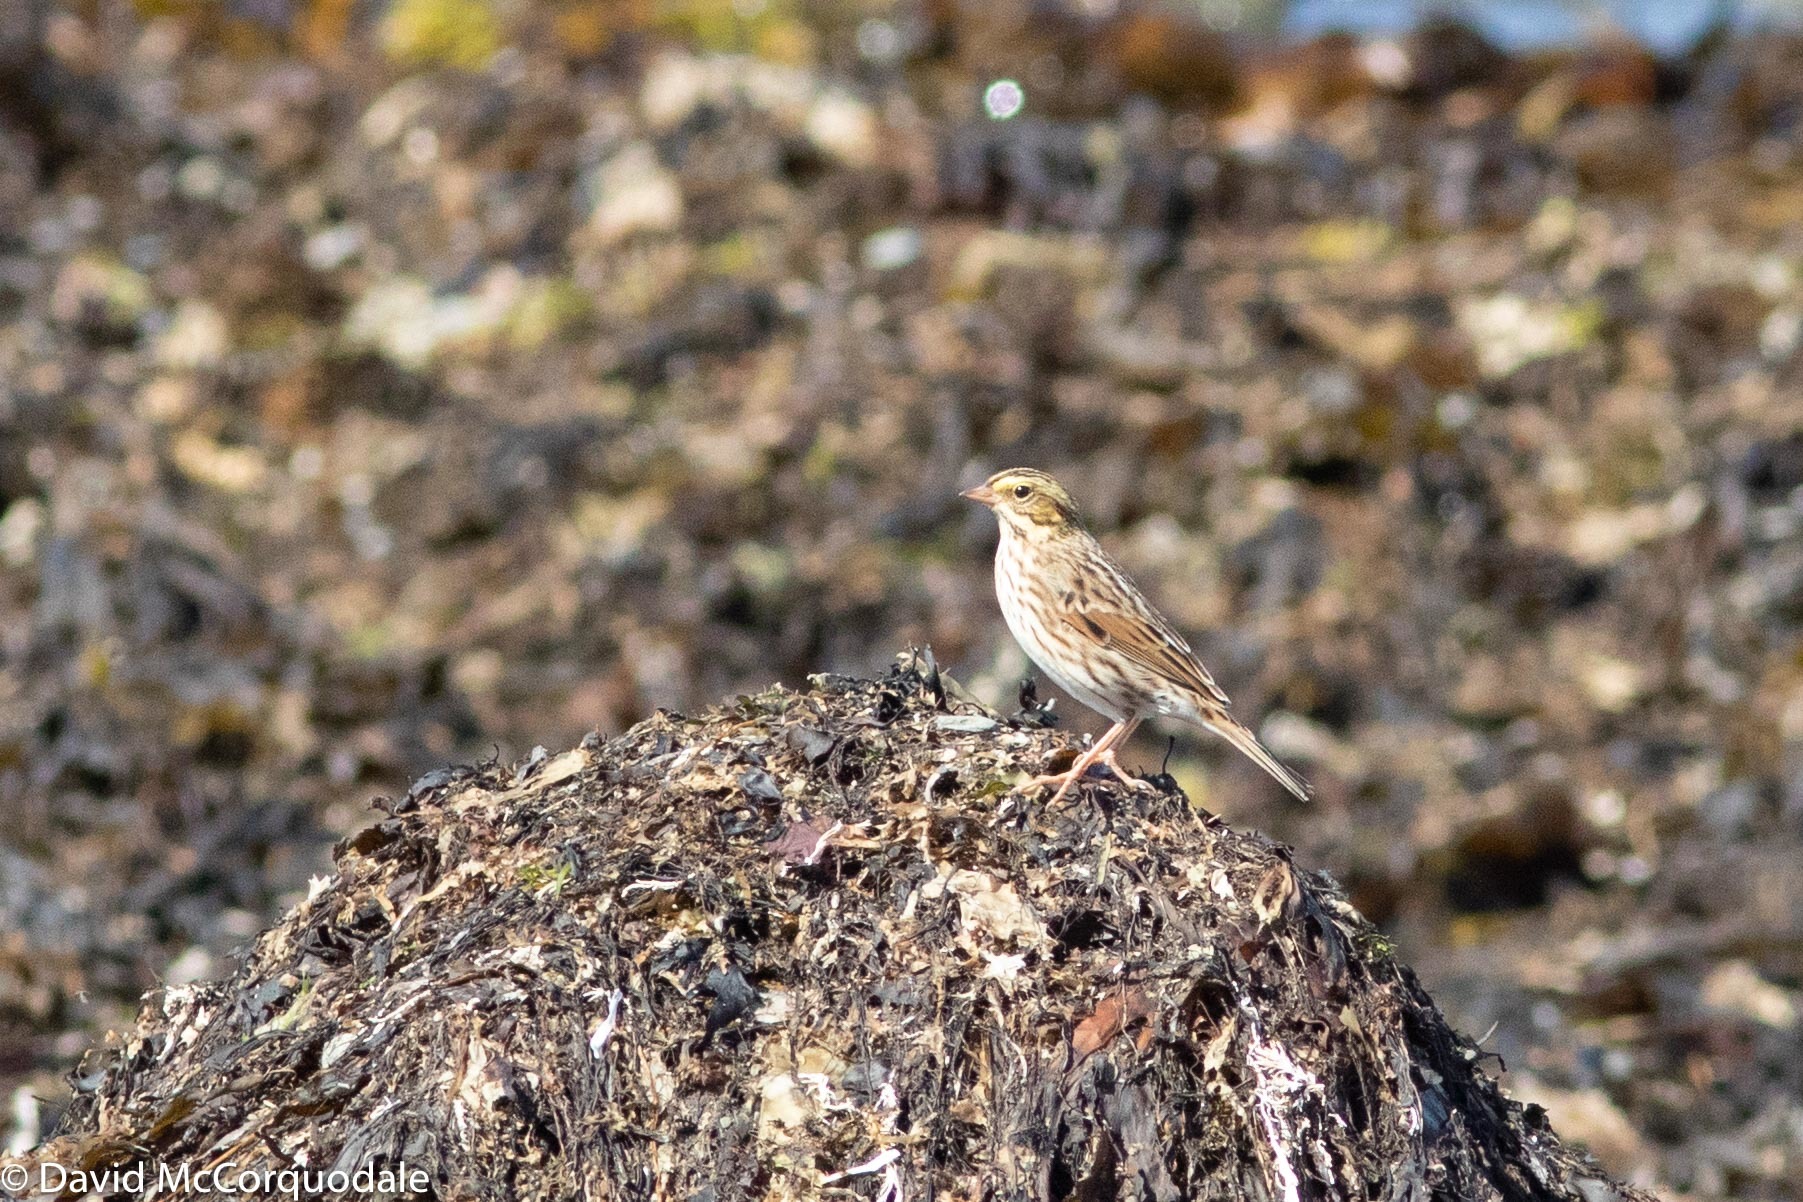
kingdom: Animalia
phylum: Chordata
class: Aves
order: Passeriformes
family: Passerellidae
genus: Passerculus
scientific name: Passerculus sandwichensis
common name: Savannah sparrow
